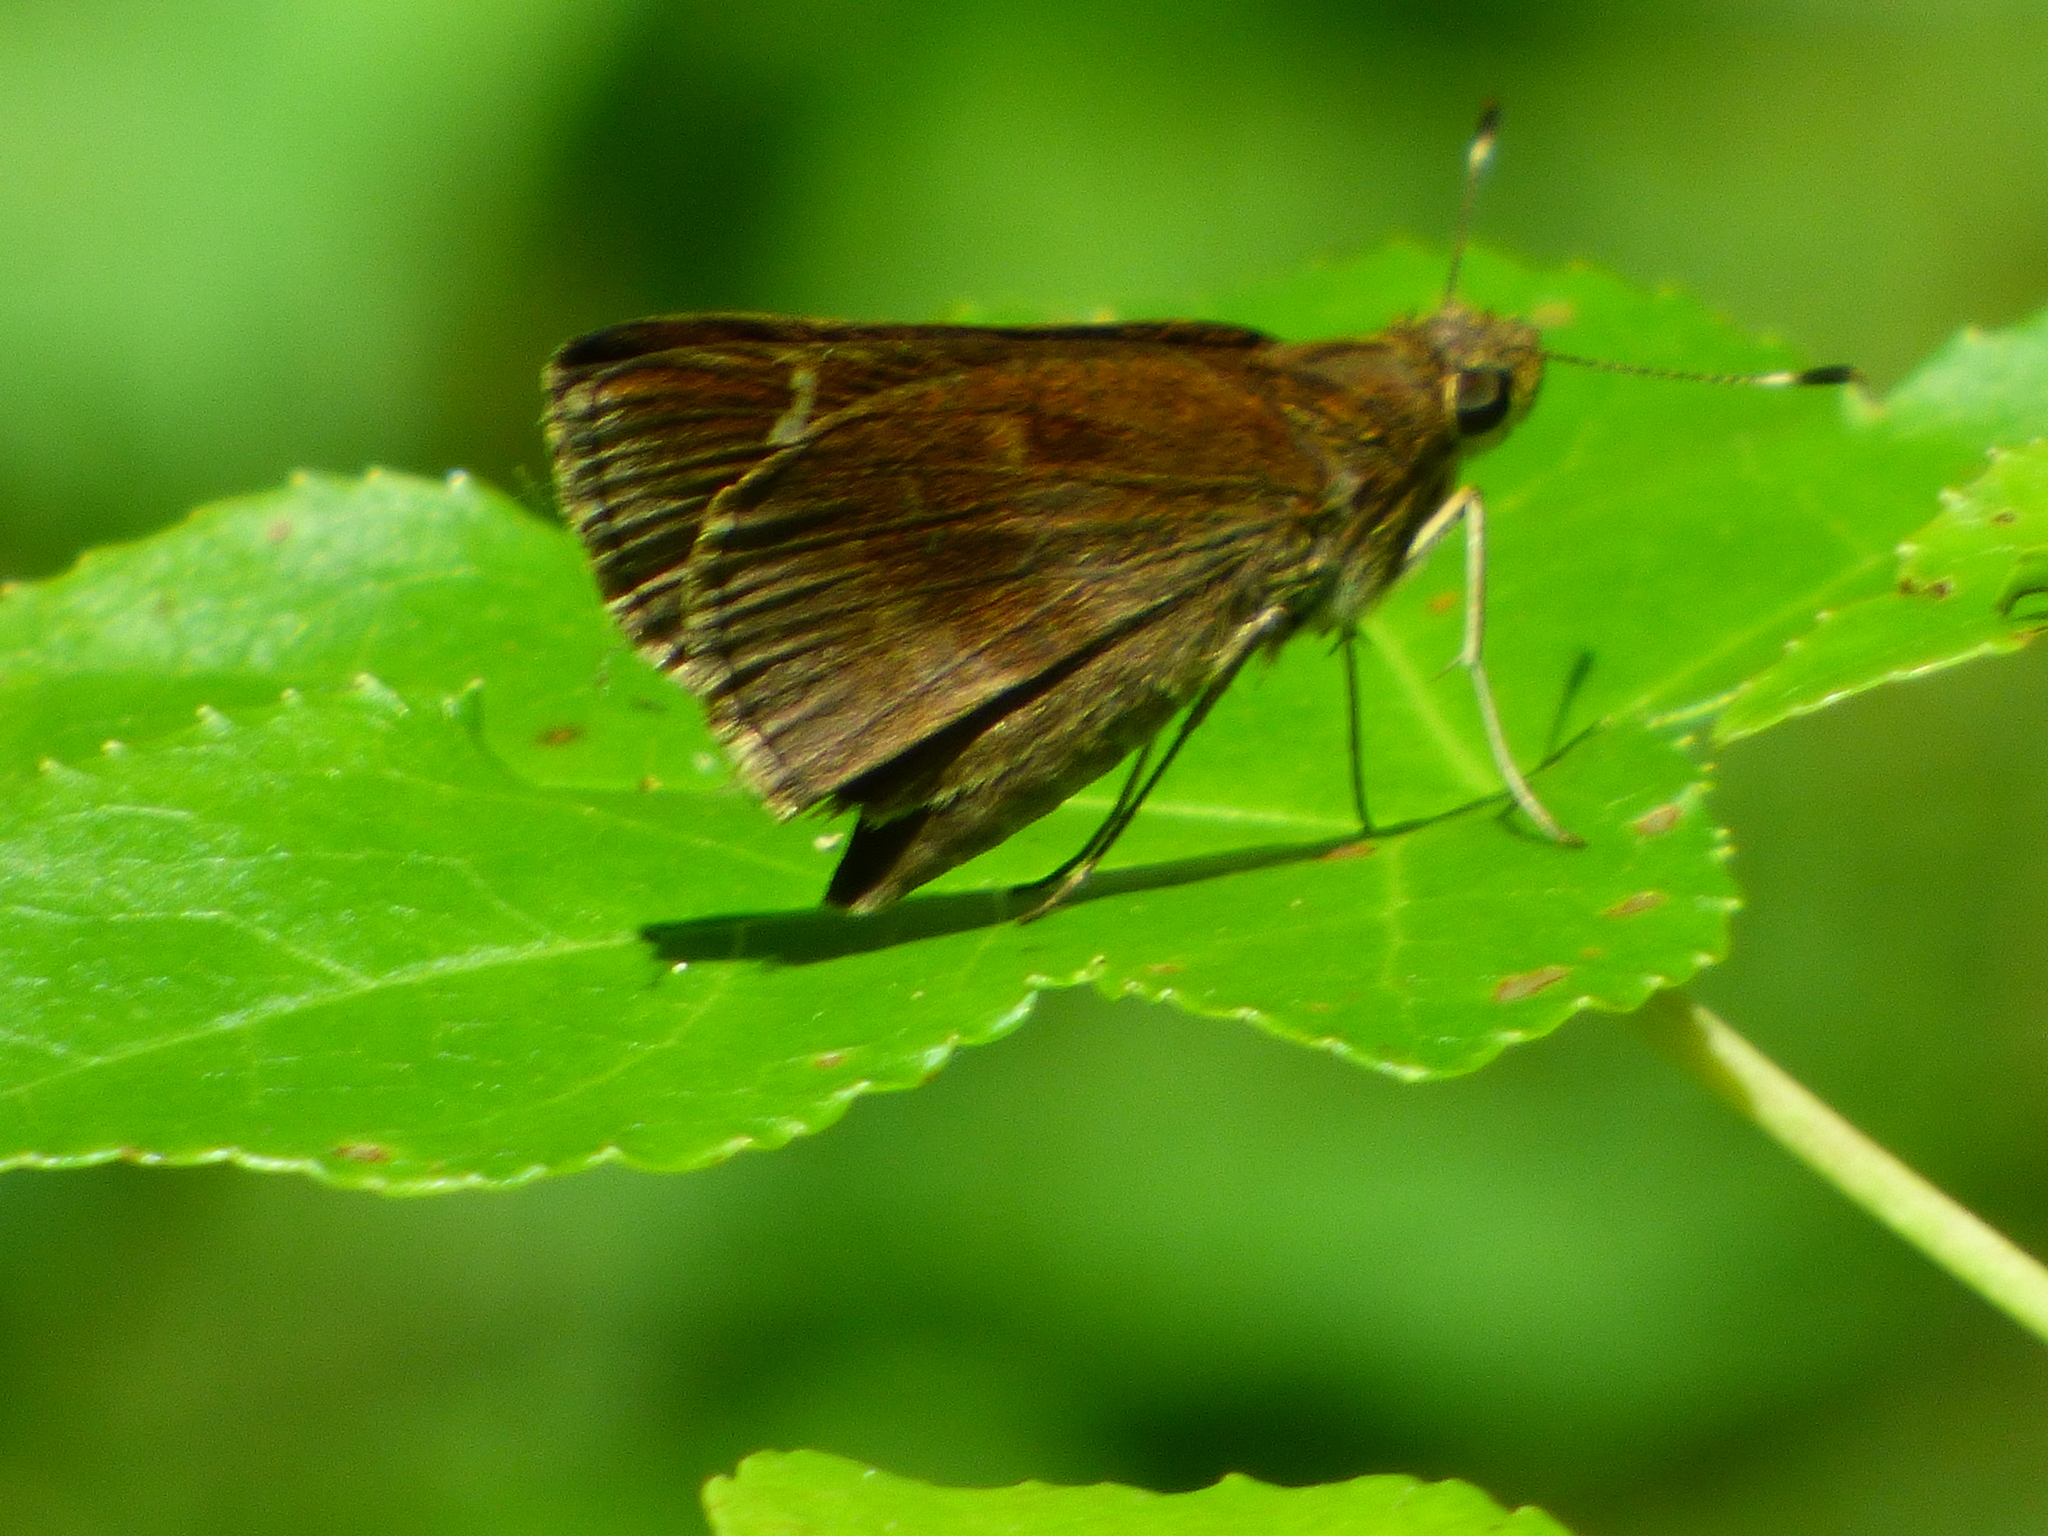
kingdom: Animalia
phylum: Arthropoda
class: Insecta
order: Lepidoptera
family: Hesperiidae
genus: Lerema
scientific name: Lerema accius
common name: Clouded skipper
